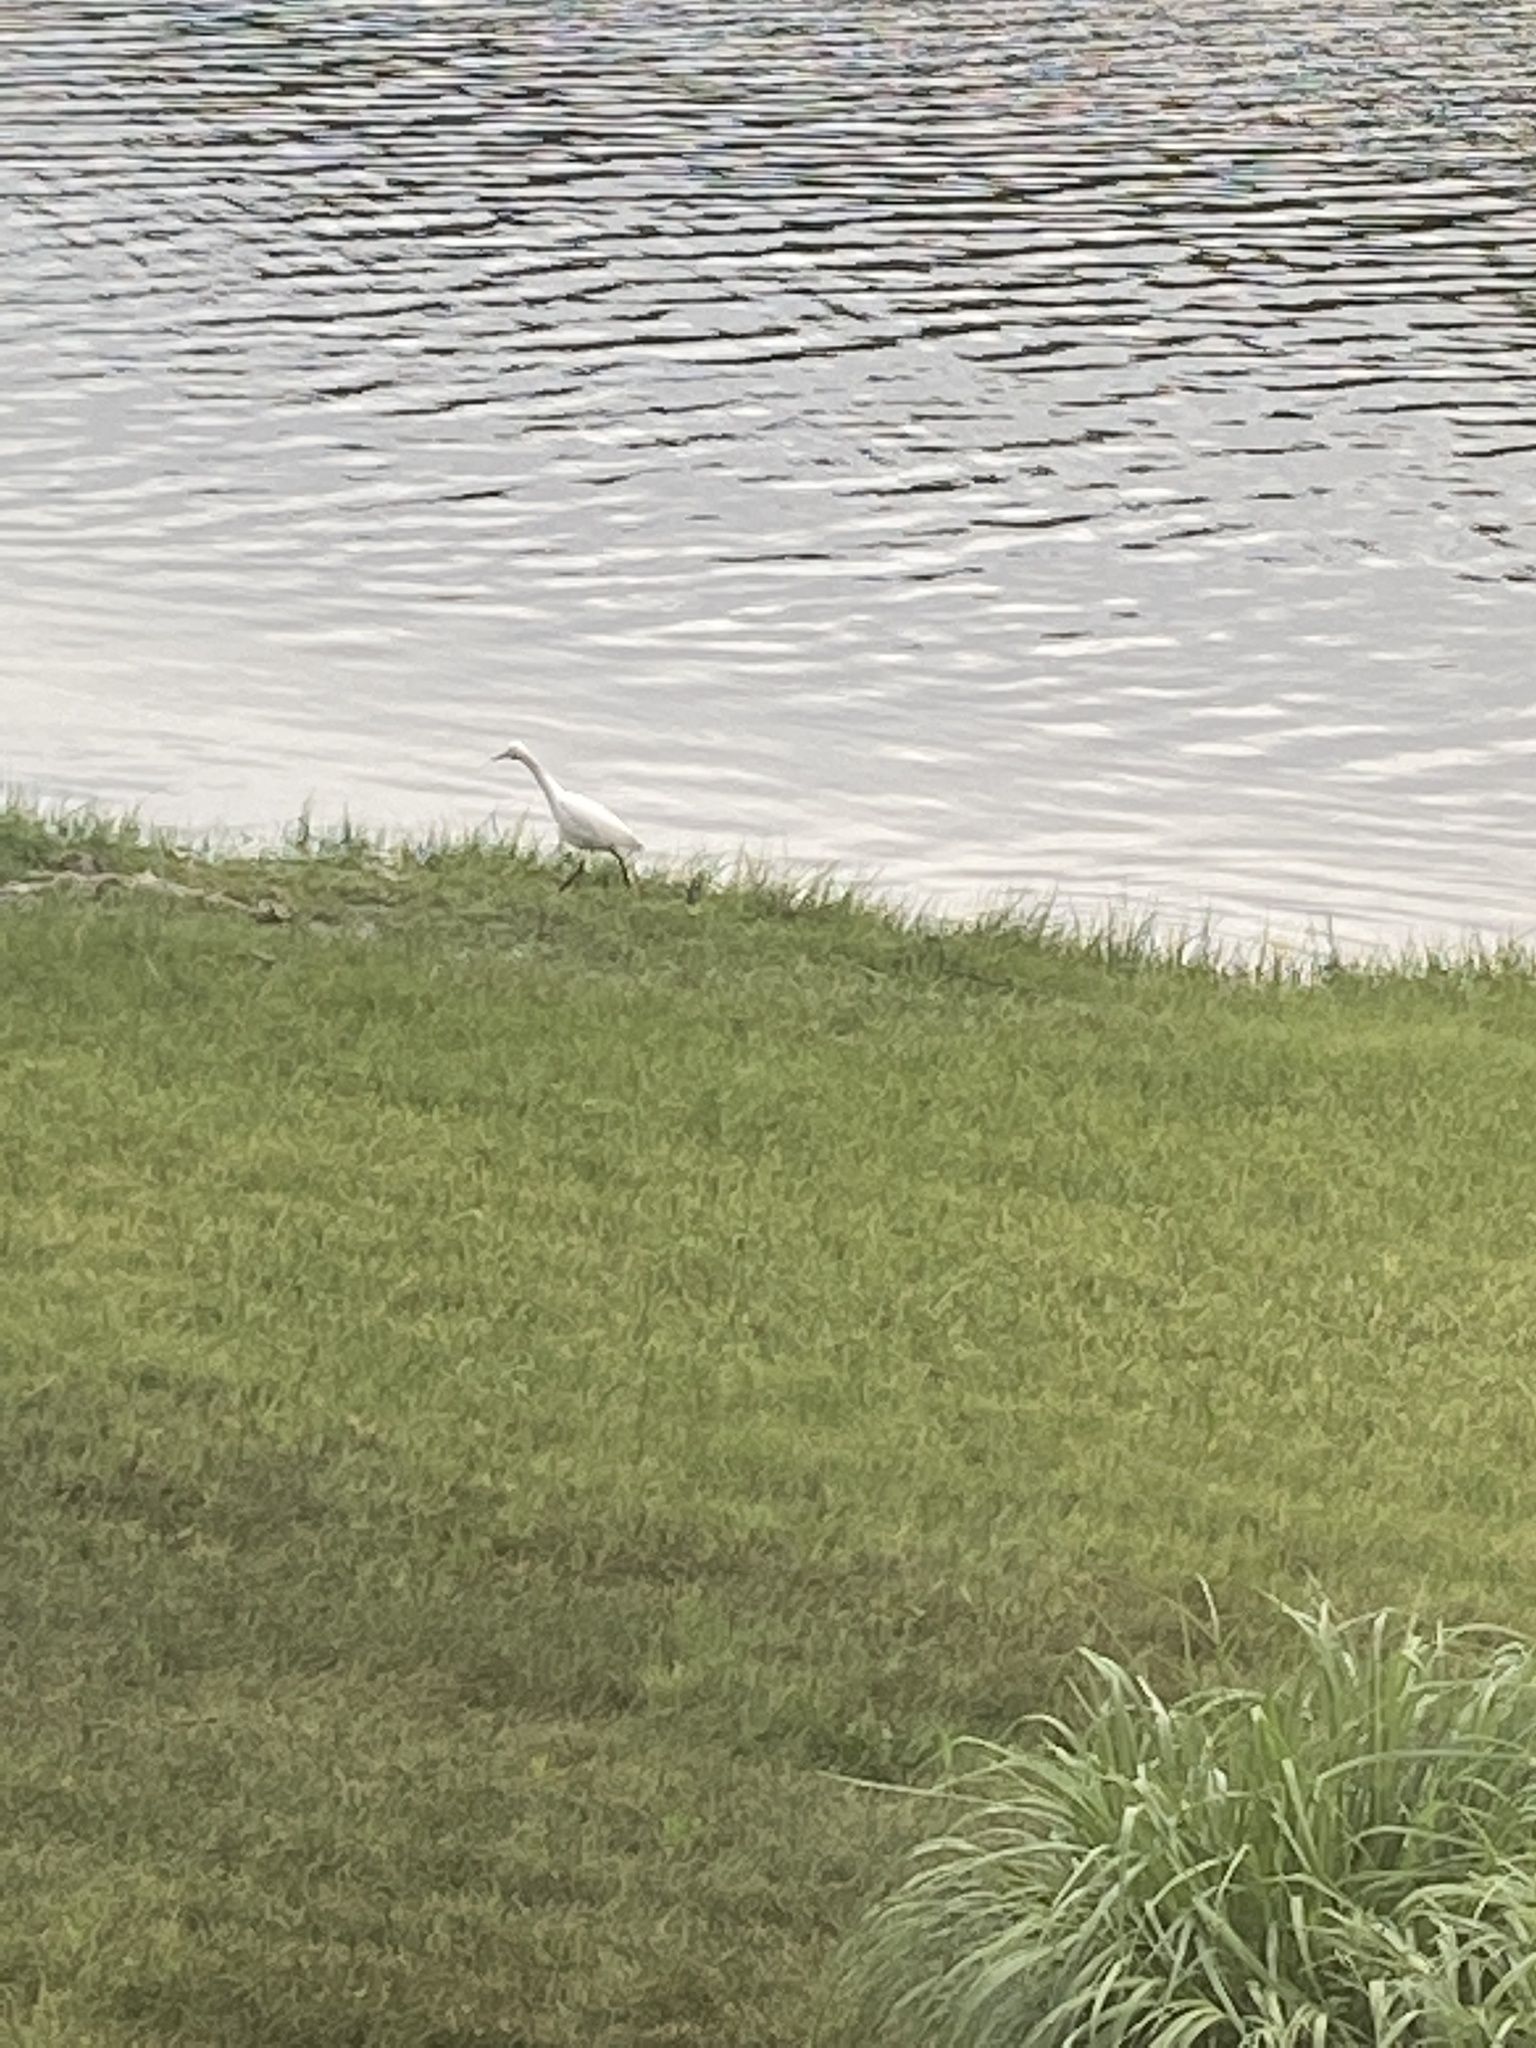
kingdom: Animalia
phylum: Chordata
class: Aves
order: Pelecaniformes
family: Ardeidae
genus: Egretta
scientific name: Egretta thula
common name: Snowy egret
